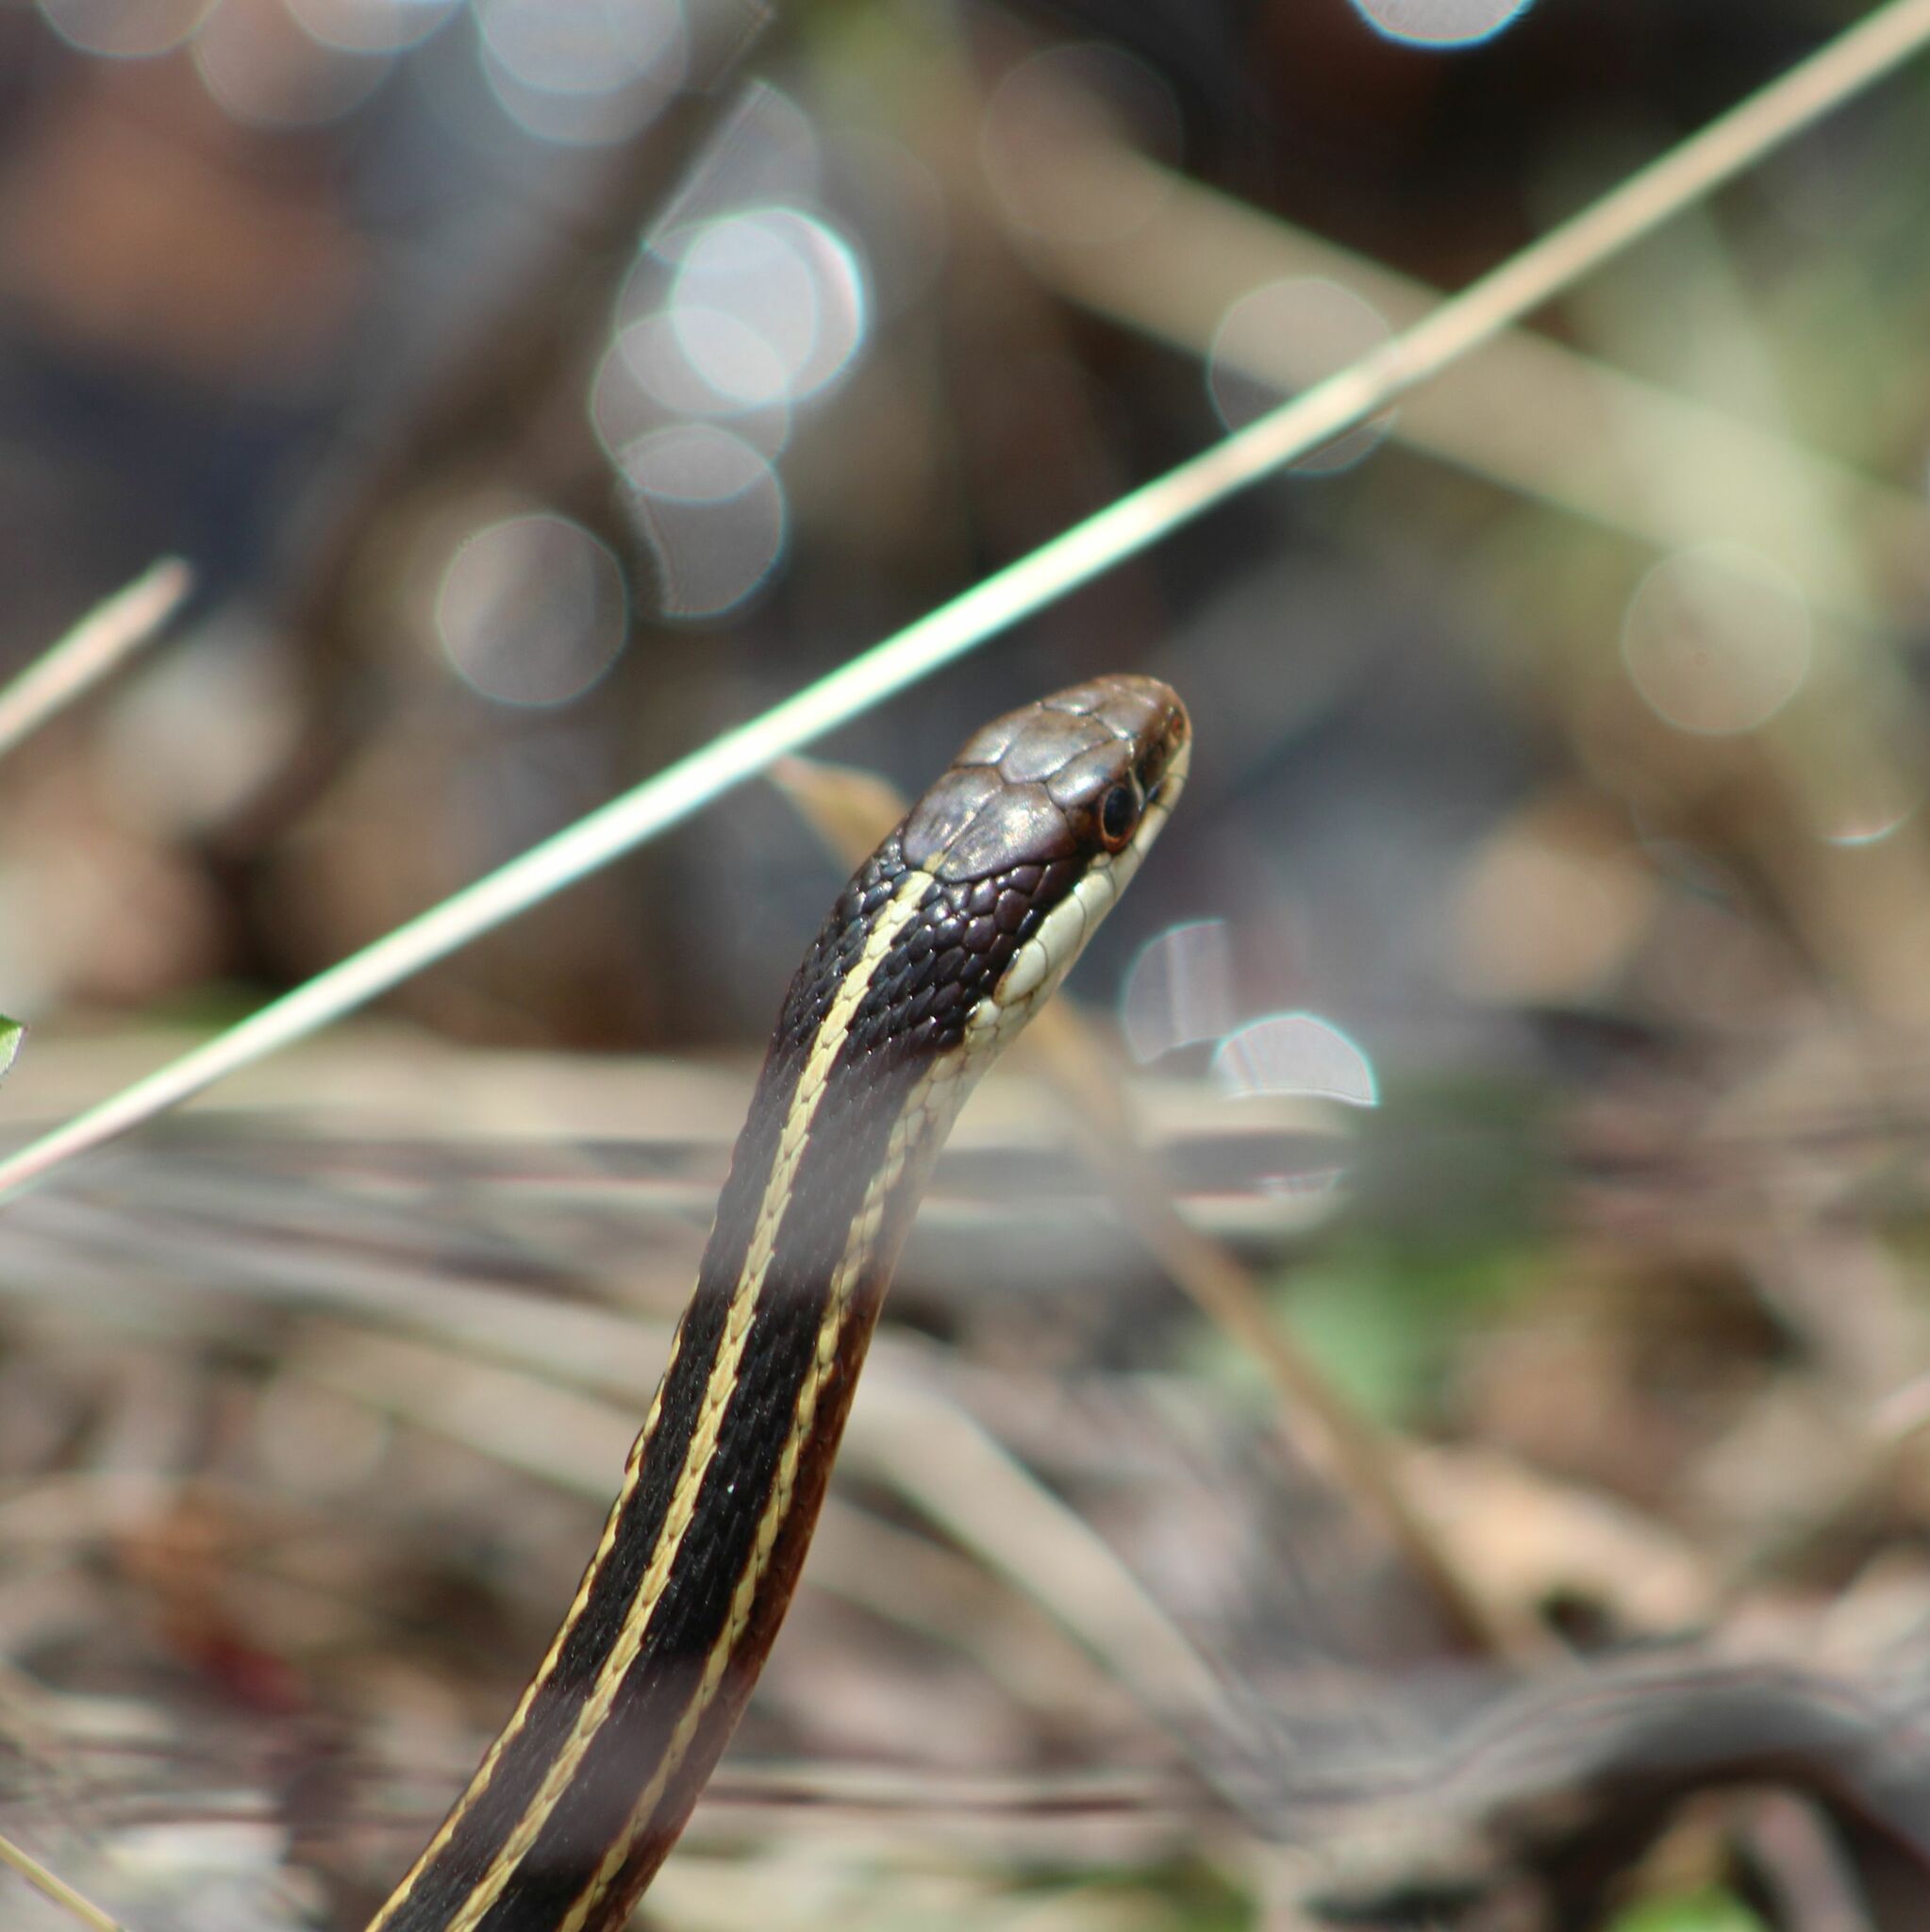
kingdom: Animalia
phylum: Chordata
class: Squamata
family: Colubridae
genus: Thamnophis
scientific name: Thamnophis saurita
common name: Eastern ribbonsnake
